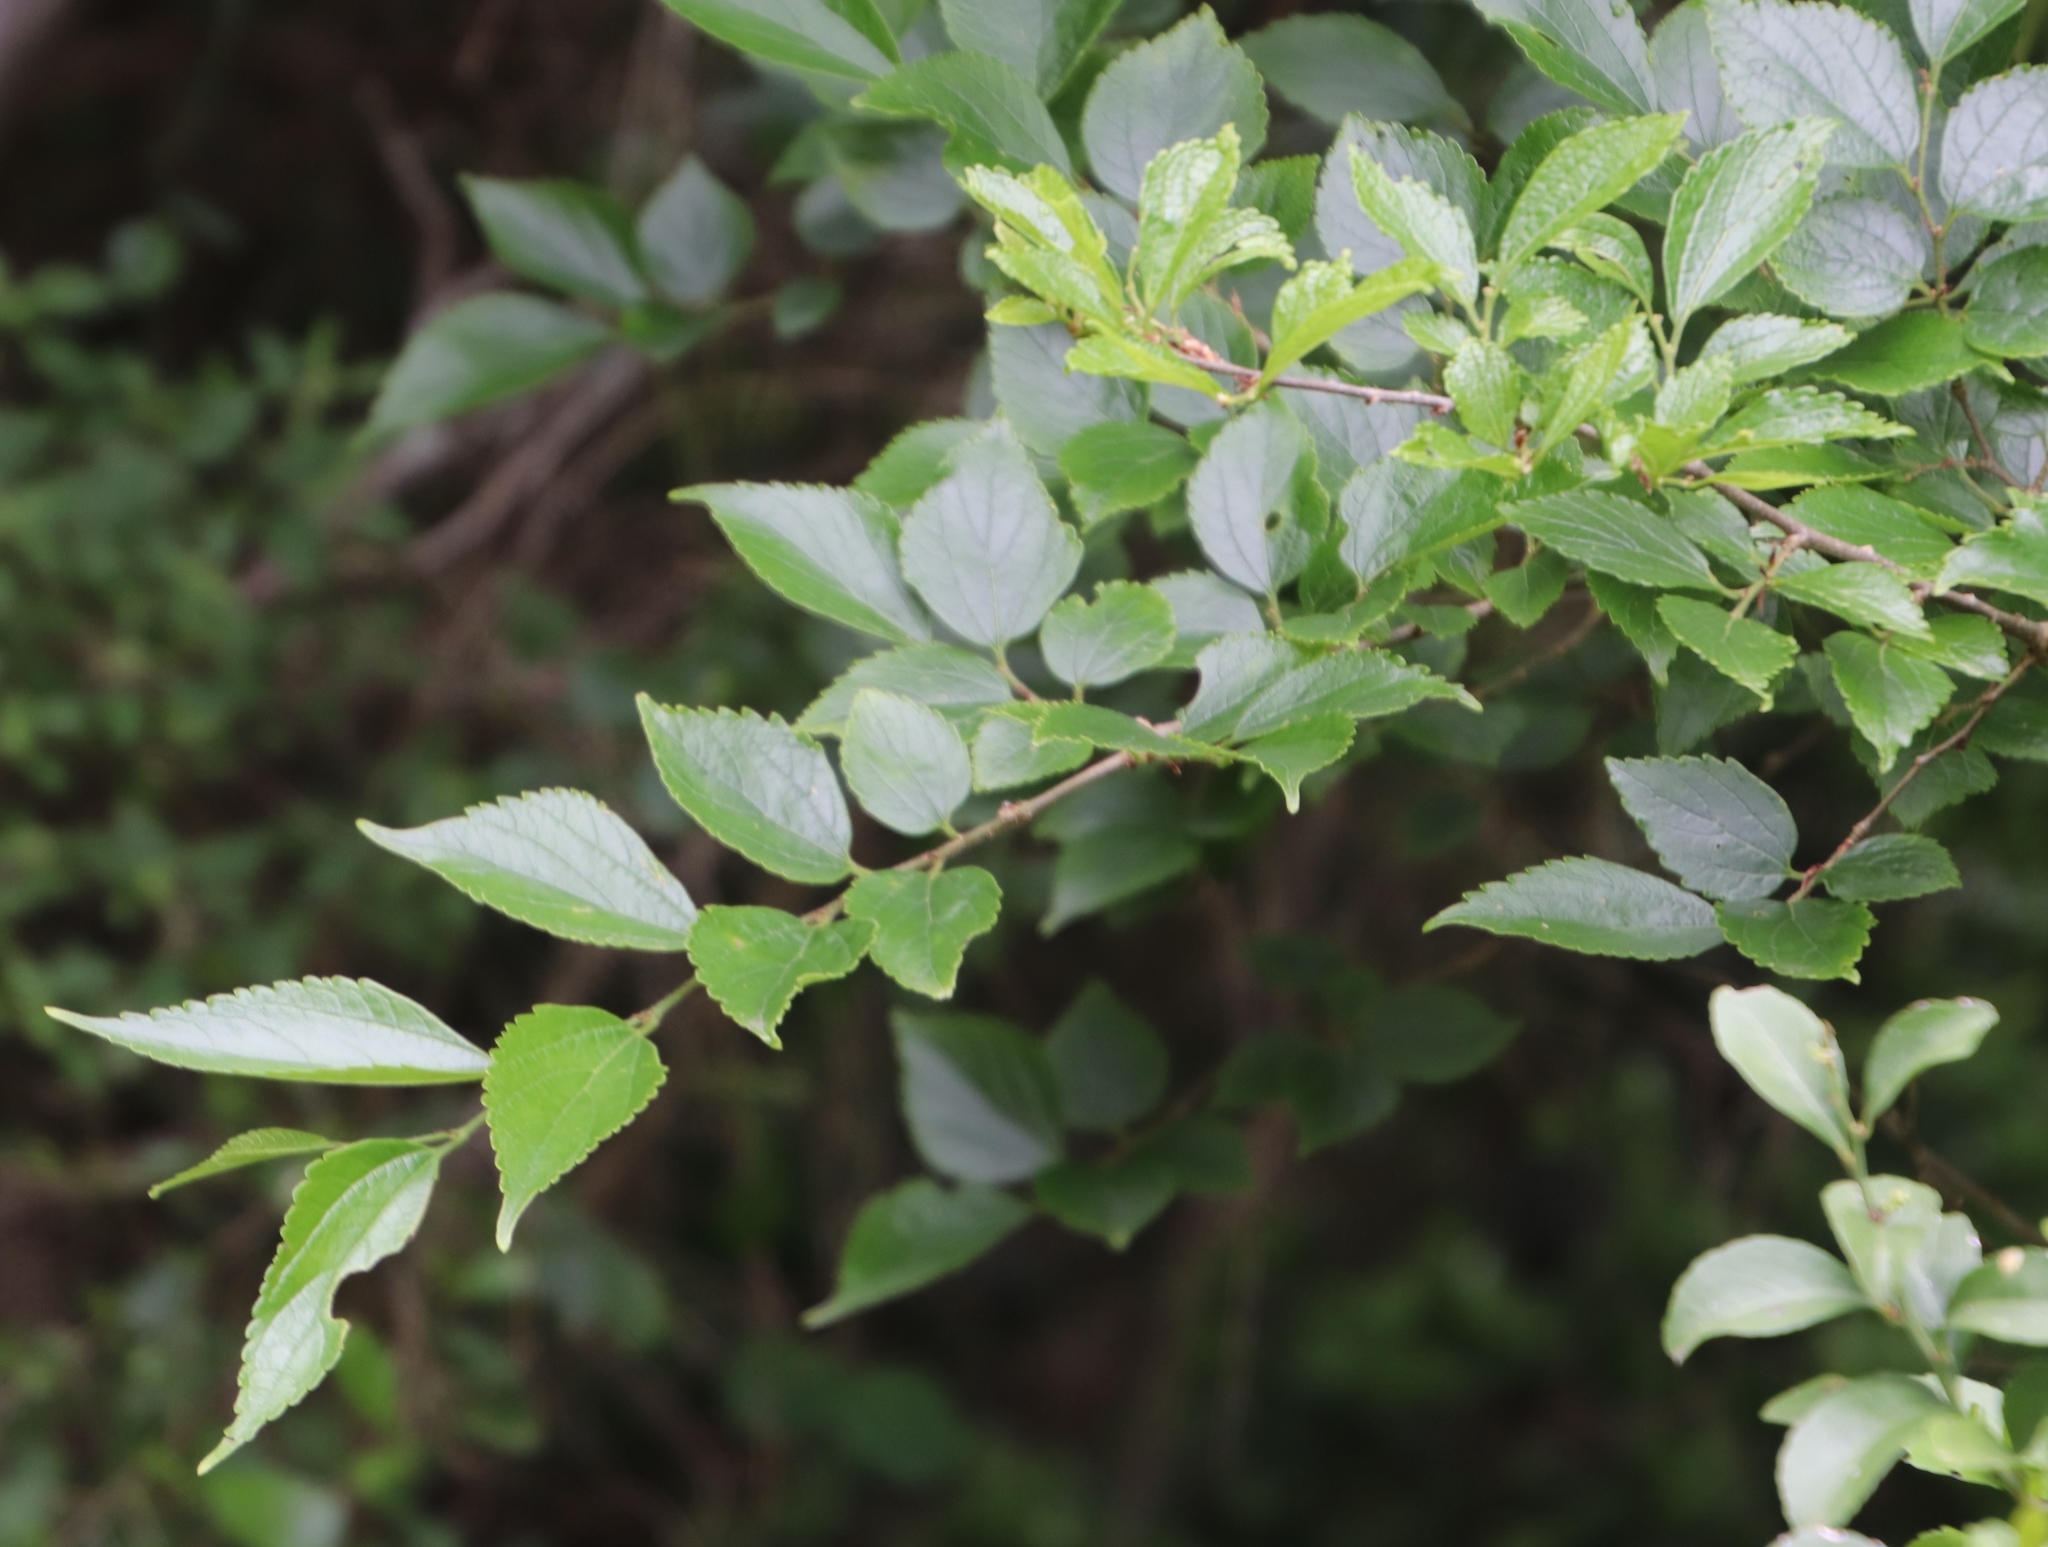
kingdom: Plantae
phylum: Tracheophyta
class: Magnoliopsida
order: Rosales
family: Cannabaceae
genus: Celtis
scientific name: Celtis africana
